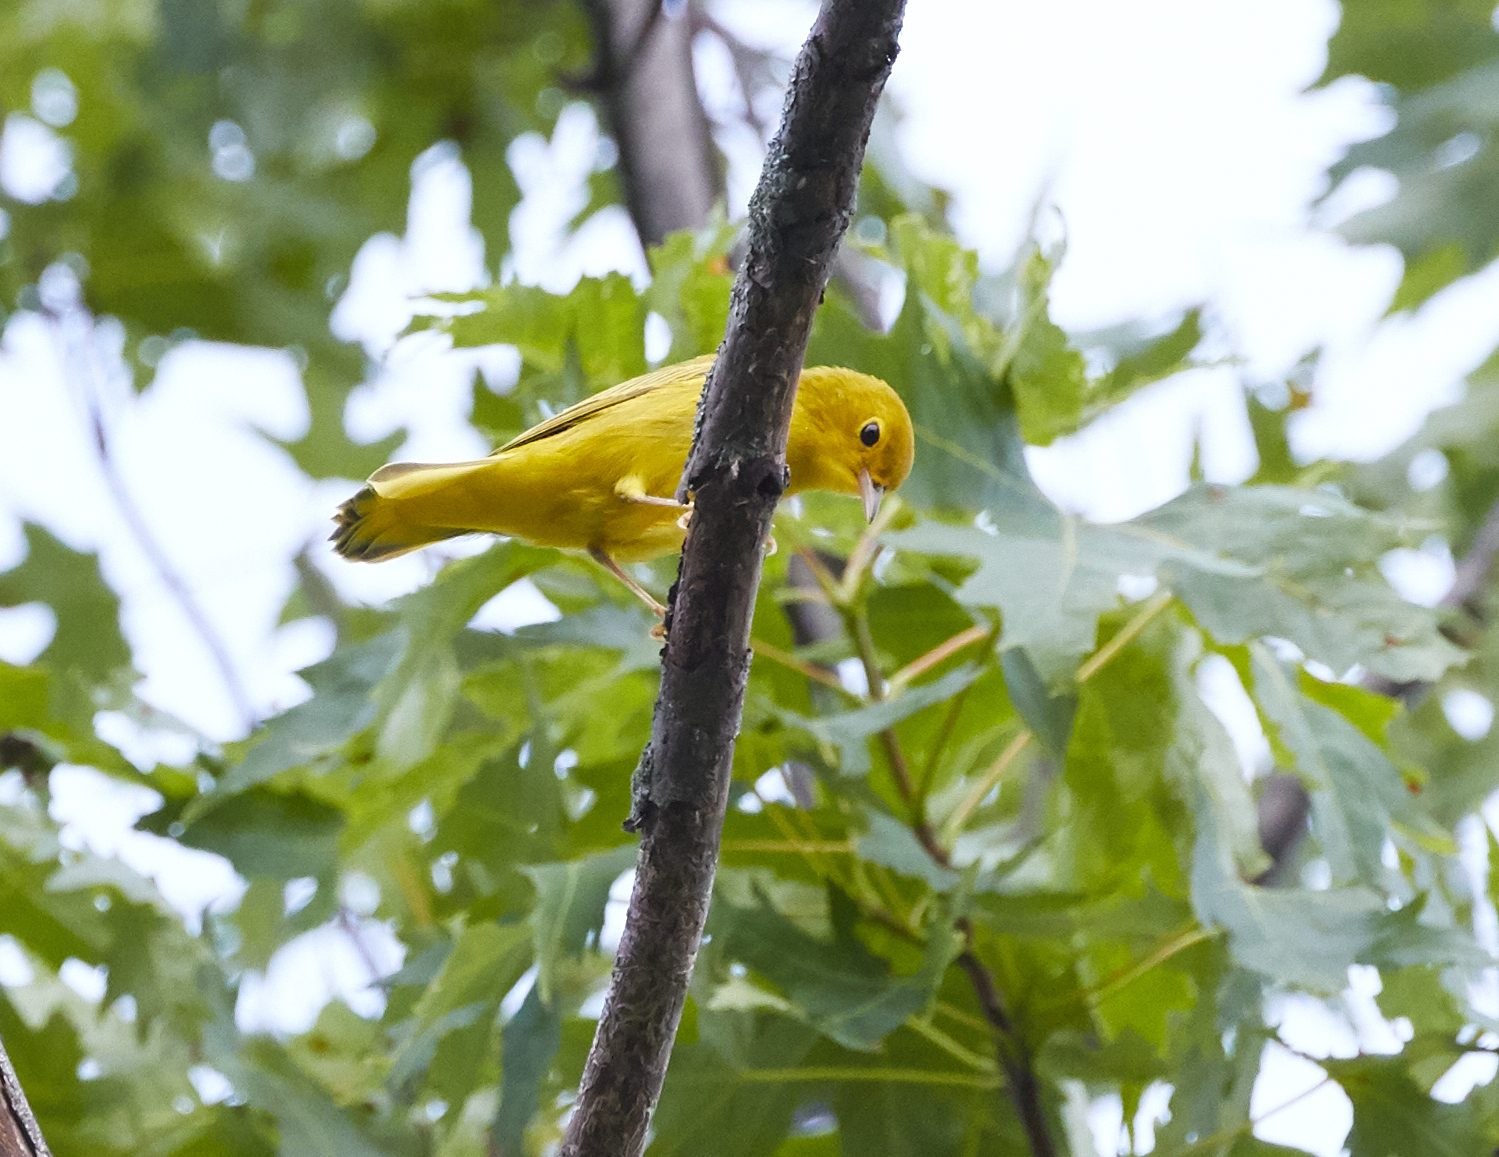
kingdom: Animalia
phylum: Chordata
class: Aves
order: Passeriformes
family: Parulidae
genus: Setophaga
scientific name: Setophaga petechia
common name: Yellow warbler
